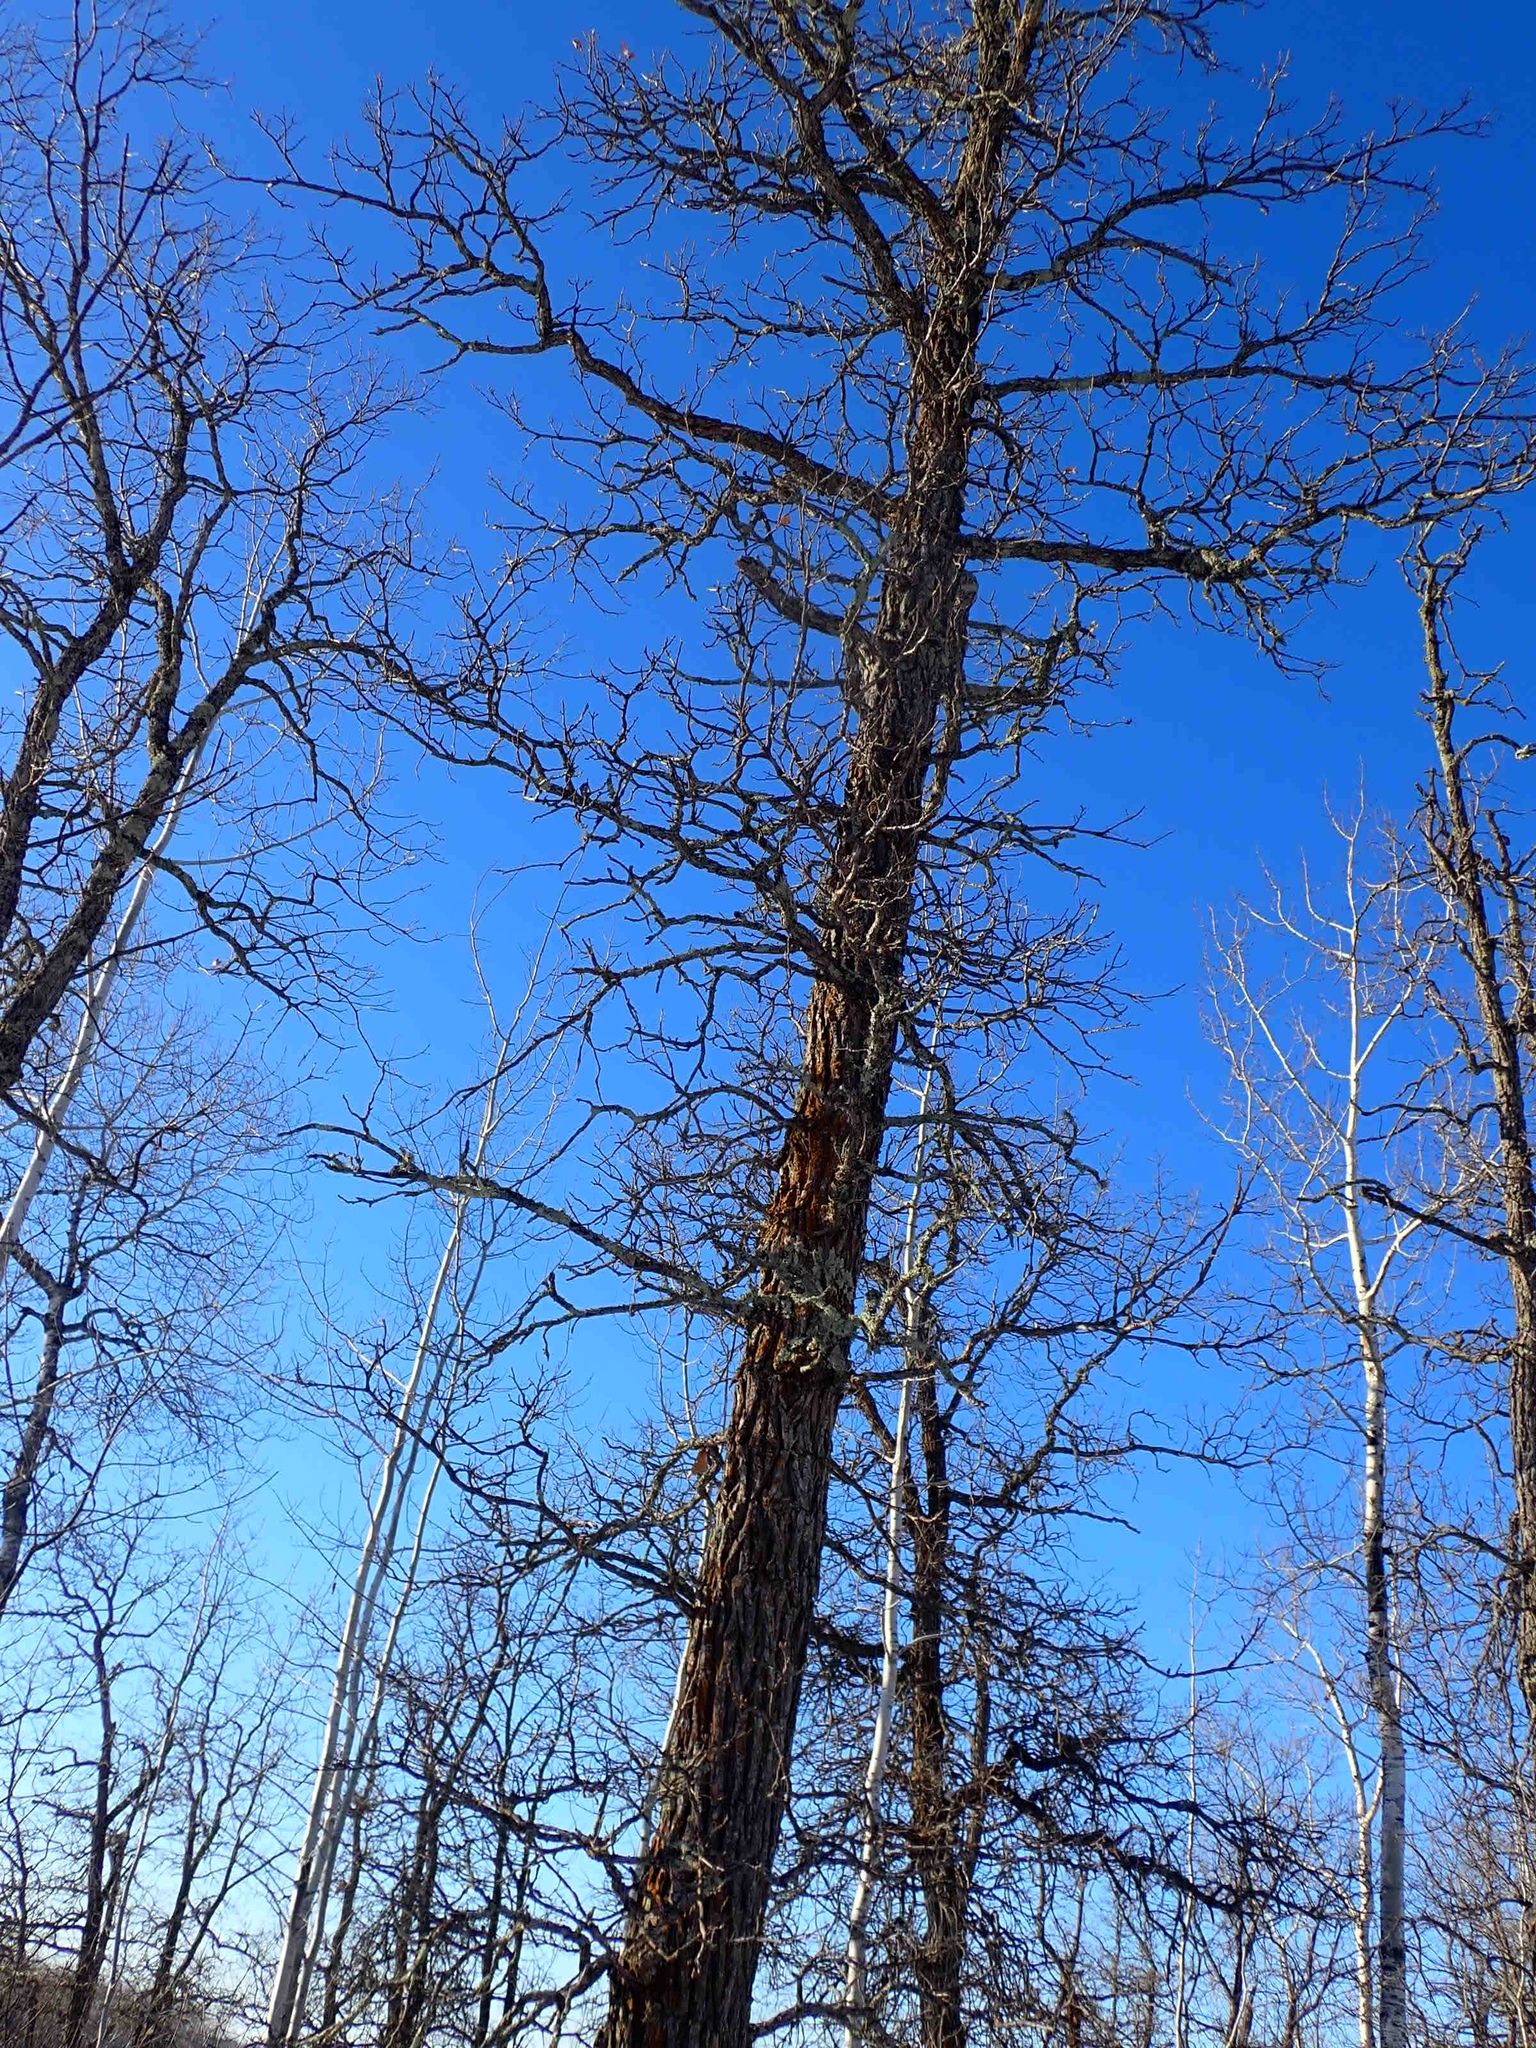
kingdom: Plantae
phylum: Tracheophyta
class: Magnoliopsida
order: Fagales
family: Fagaceae
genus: Quercus
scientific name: Quercus macrocarpa
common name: Bur oak
